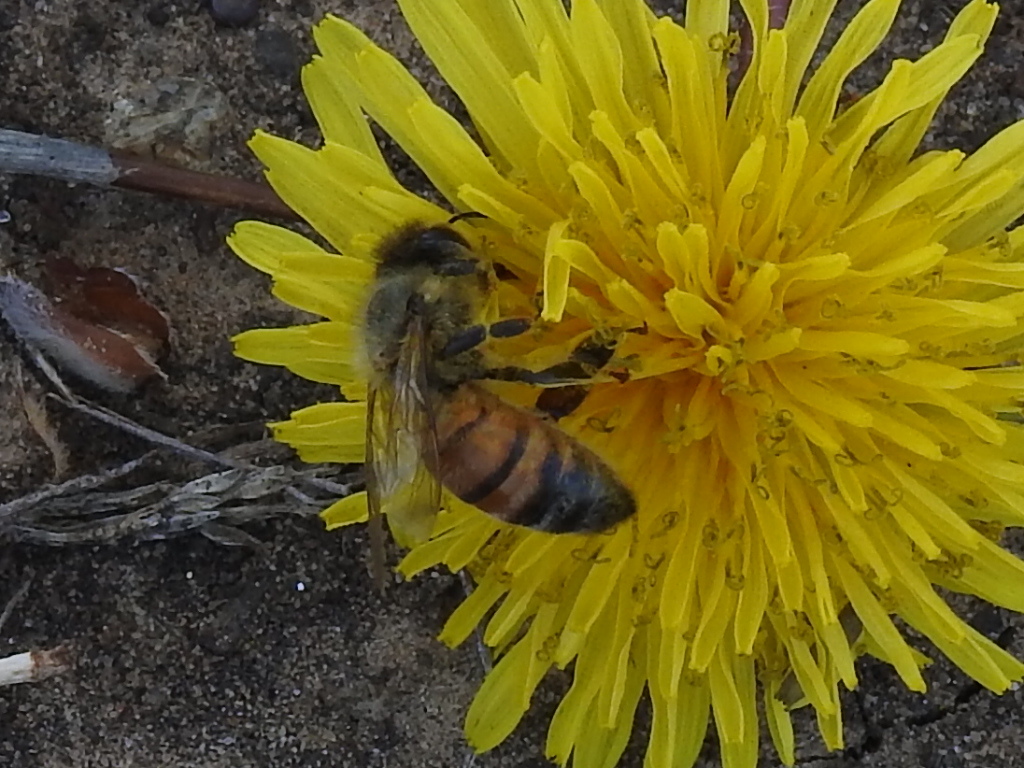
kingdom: Animalia
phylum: Arthropoda
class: Insecta
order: Hymenoptera
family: Apidae
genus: Apis
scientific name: Apis mellifera
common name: Honey bee
